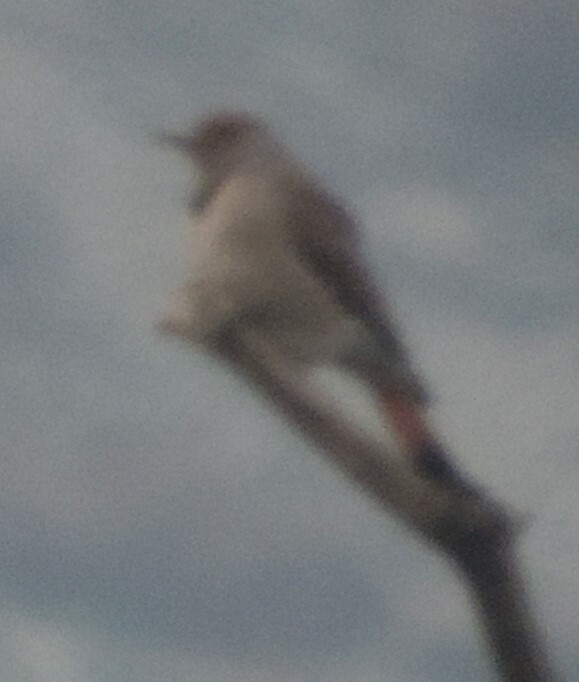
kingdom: Animalia
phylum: Chordata
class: Aves
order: Piciformes
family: Picidae
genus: Colaptes
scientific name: Colaptes auratus
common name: Northern flicker
